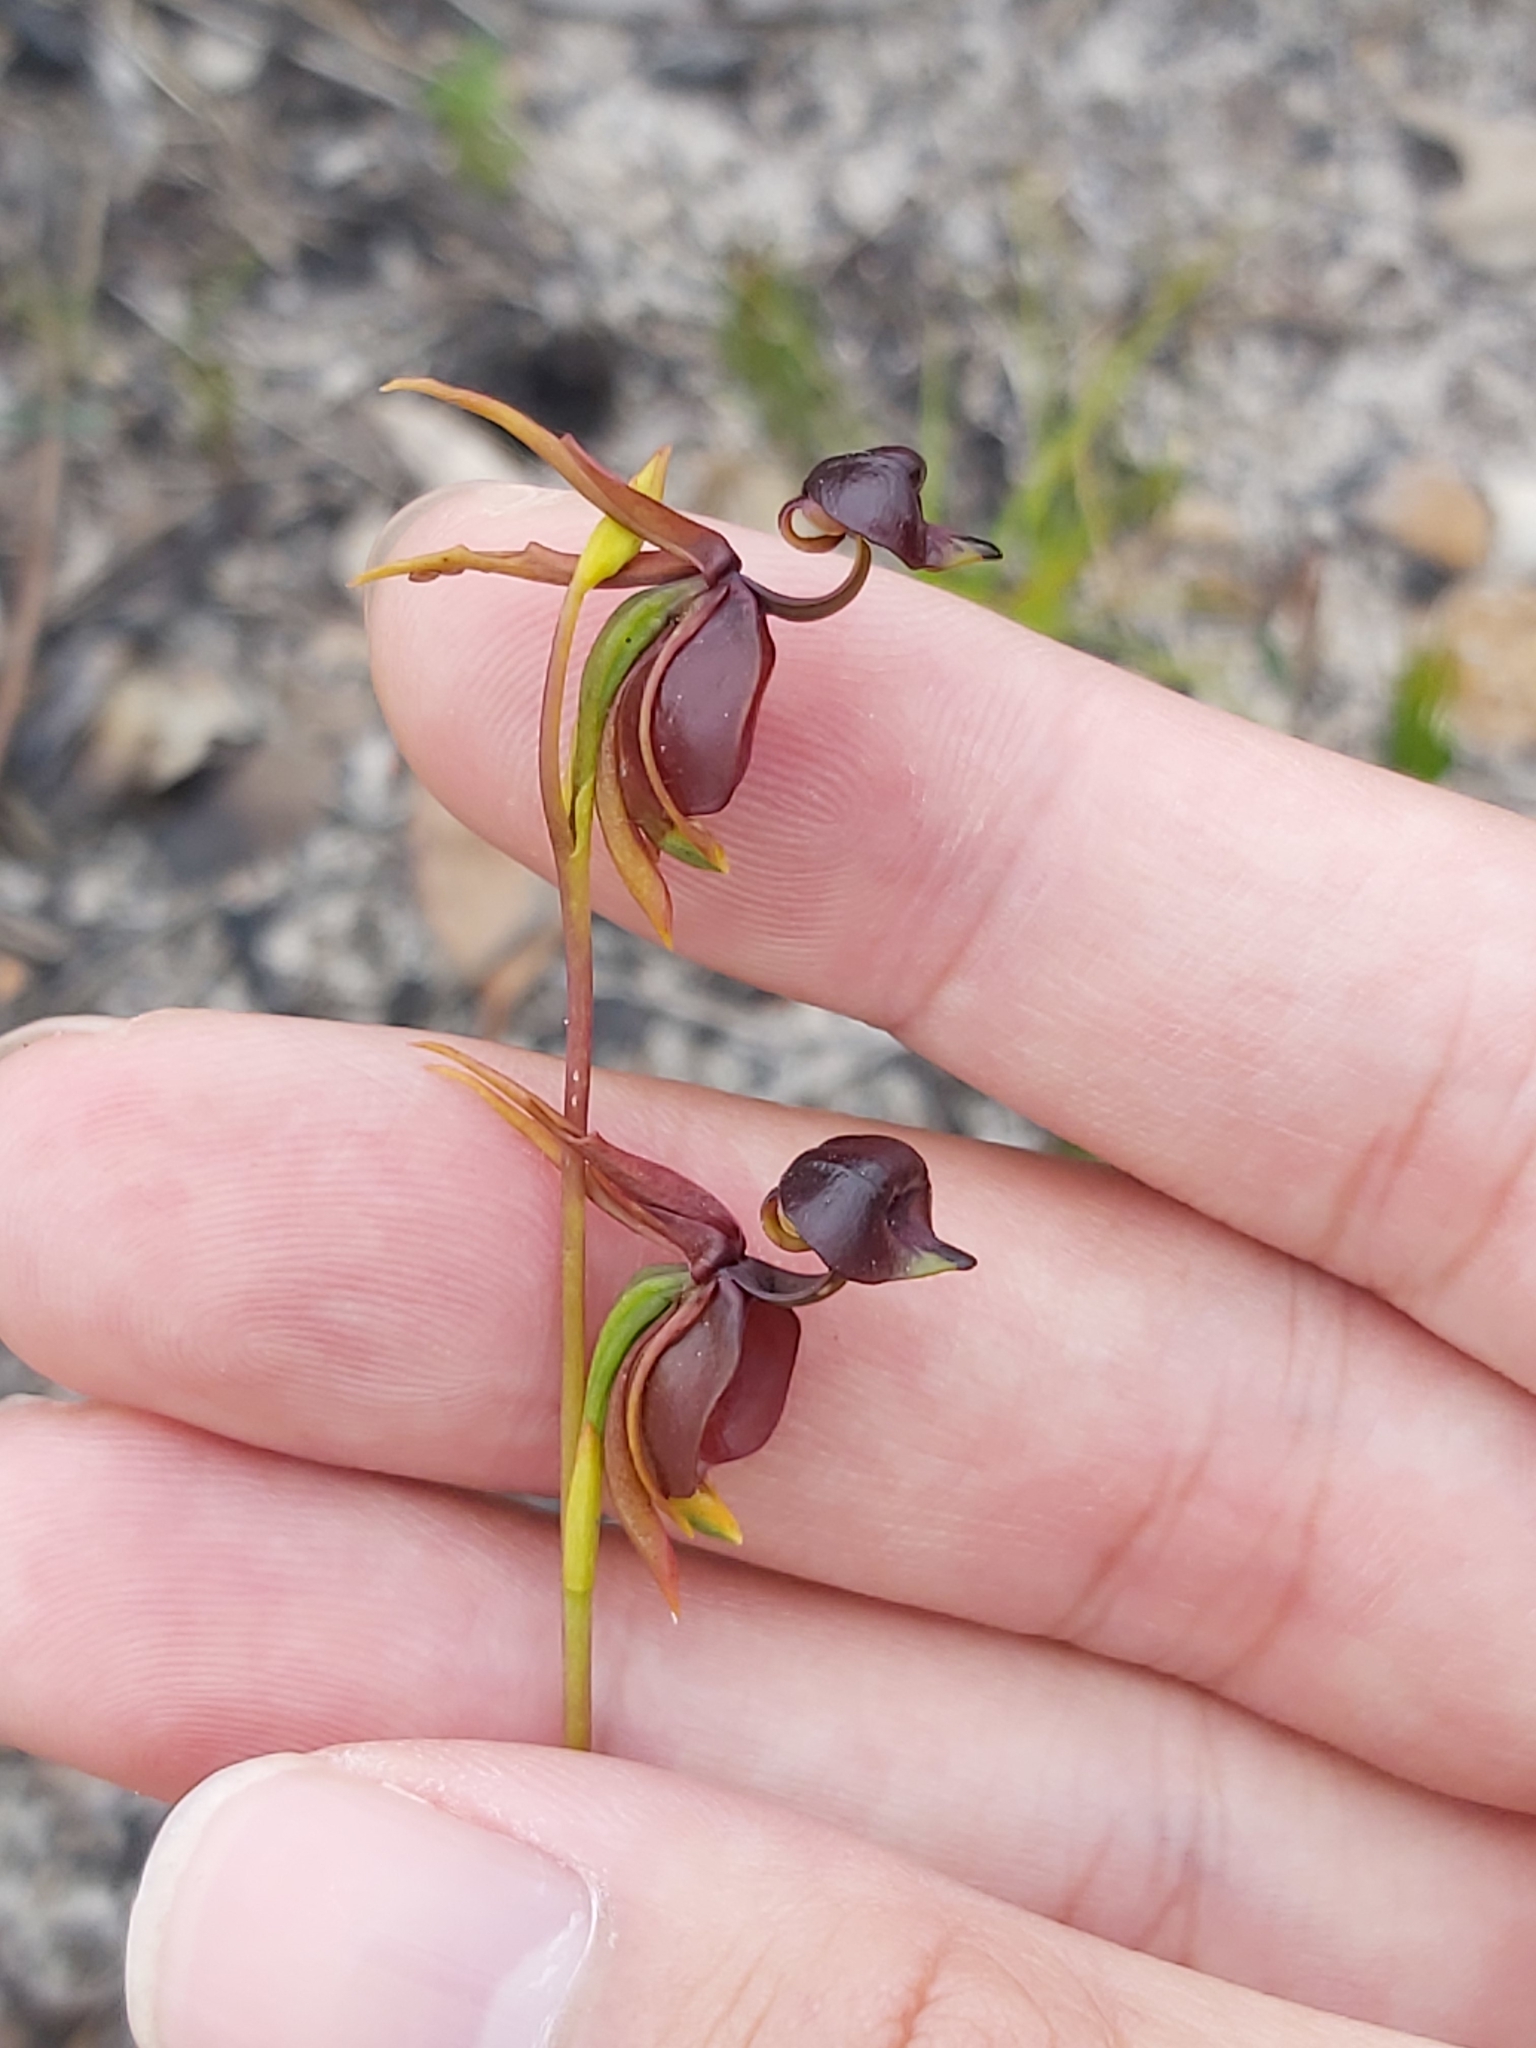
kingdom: Plantae
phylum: Tracheophyta
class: Liliopsida
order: Asparagales
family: Orchidaceae
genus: Caleana
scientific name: Caleana major
